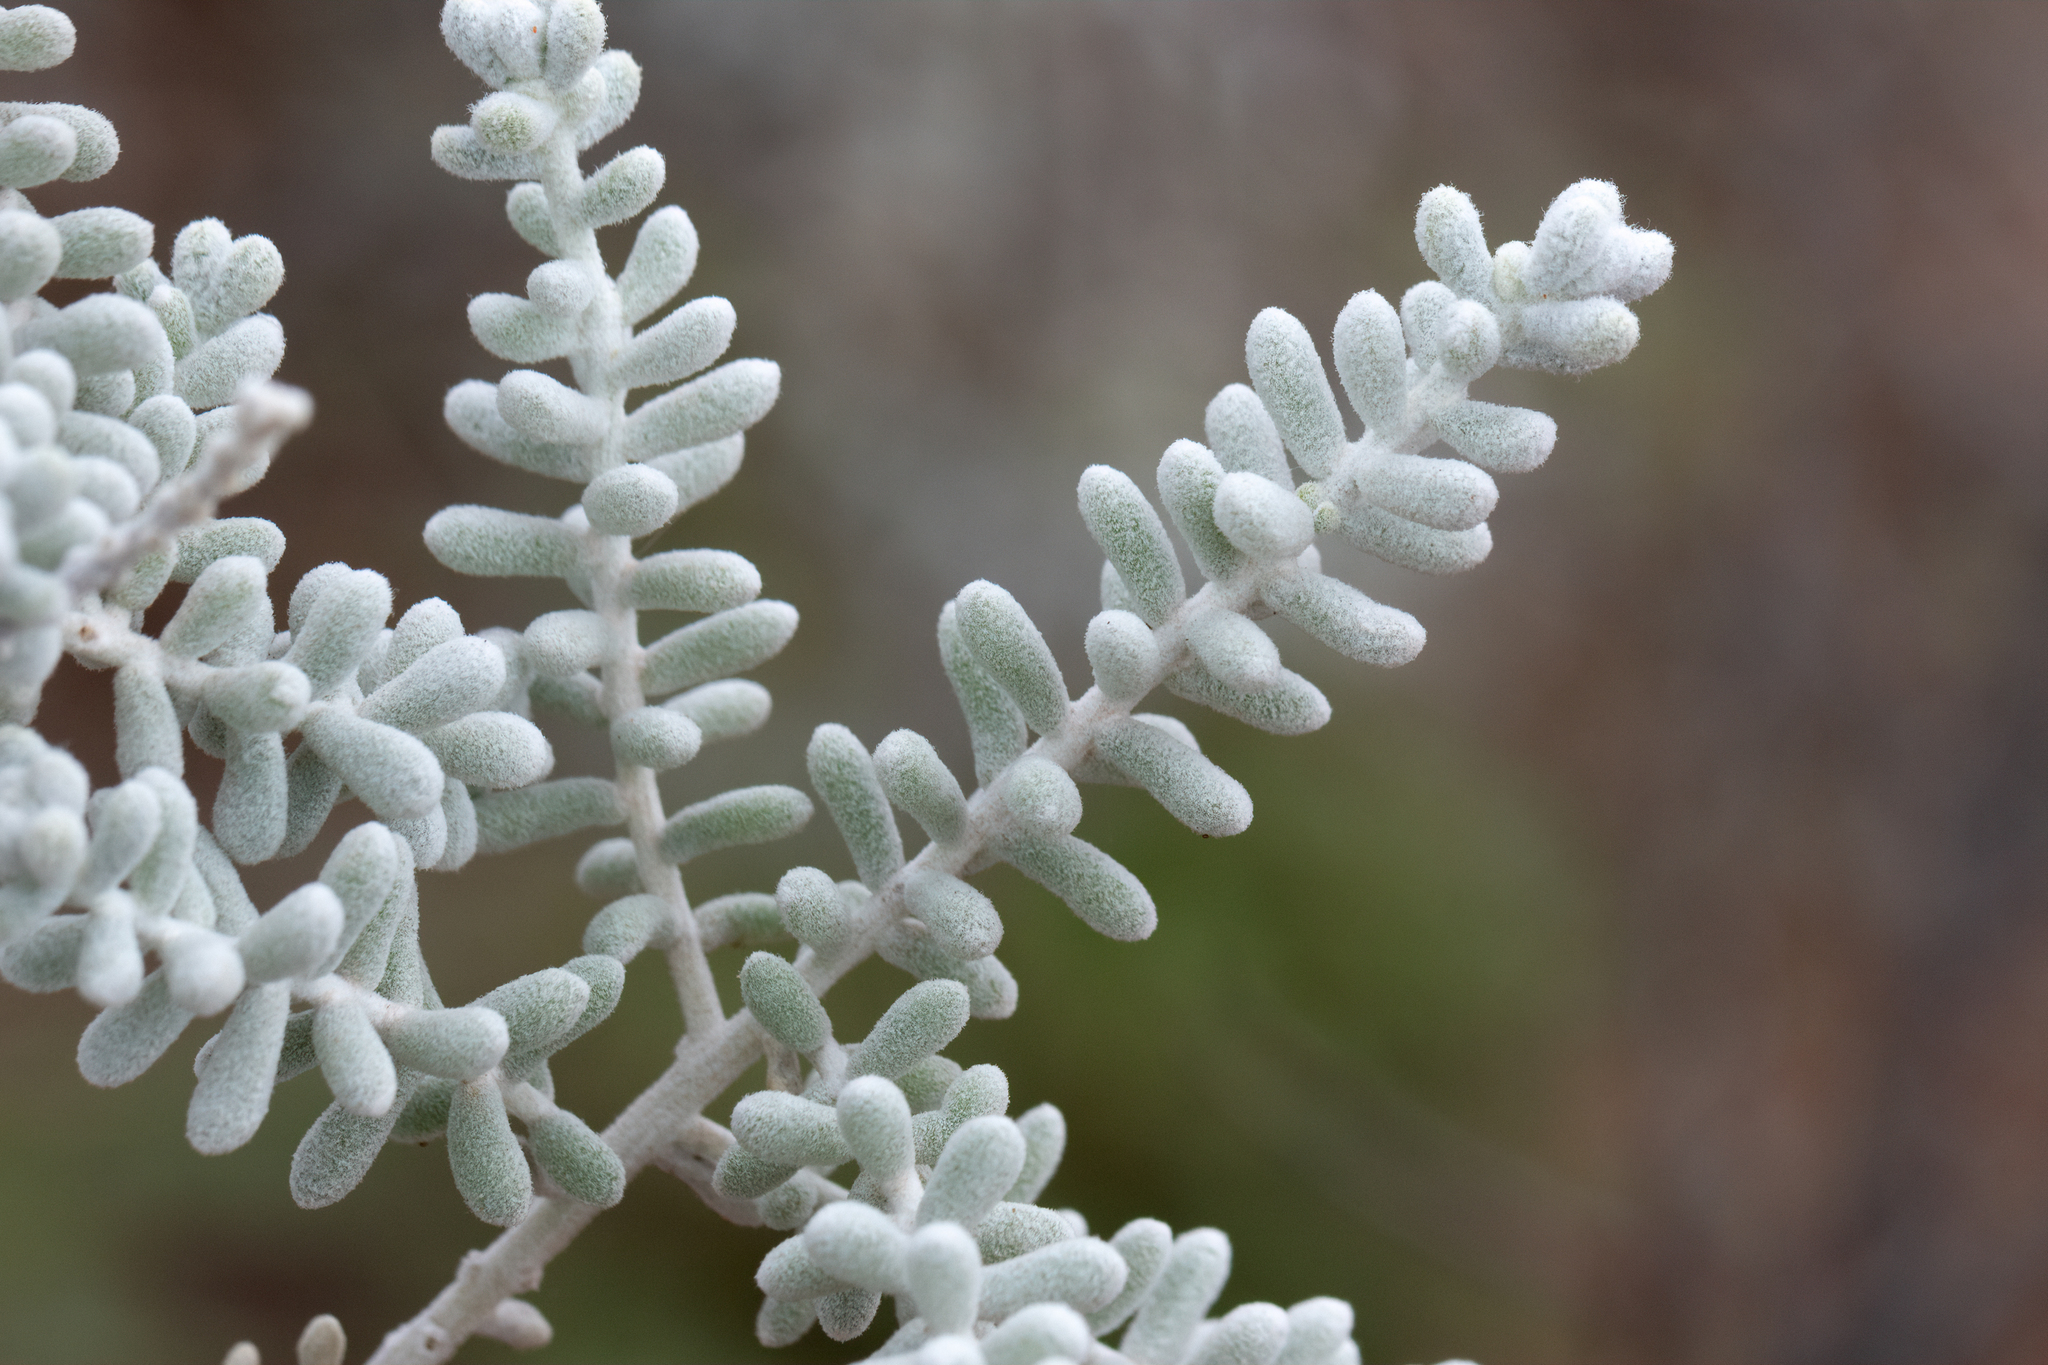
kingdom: Plantae
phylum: Tracheophyta
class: Magnoliopsida
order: Caryophyllales
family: Amaranthaceae
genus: Maireana
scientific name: Maireana sedifolia
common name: Hoary bluebush
